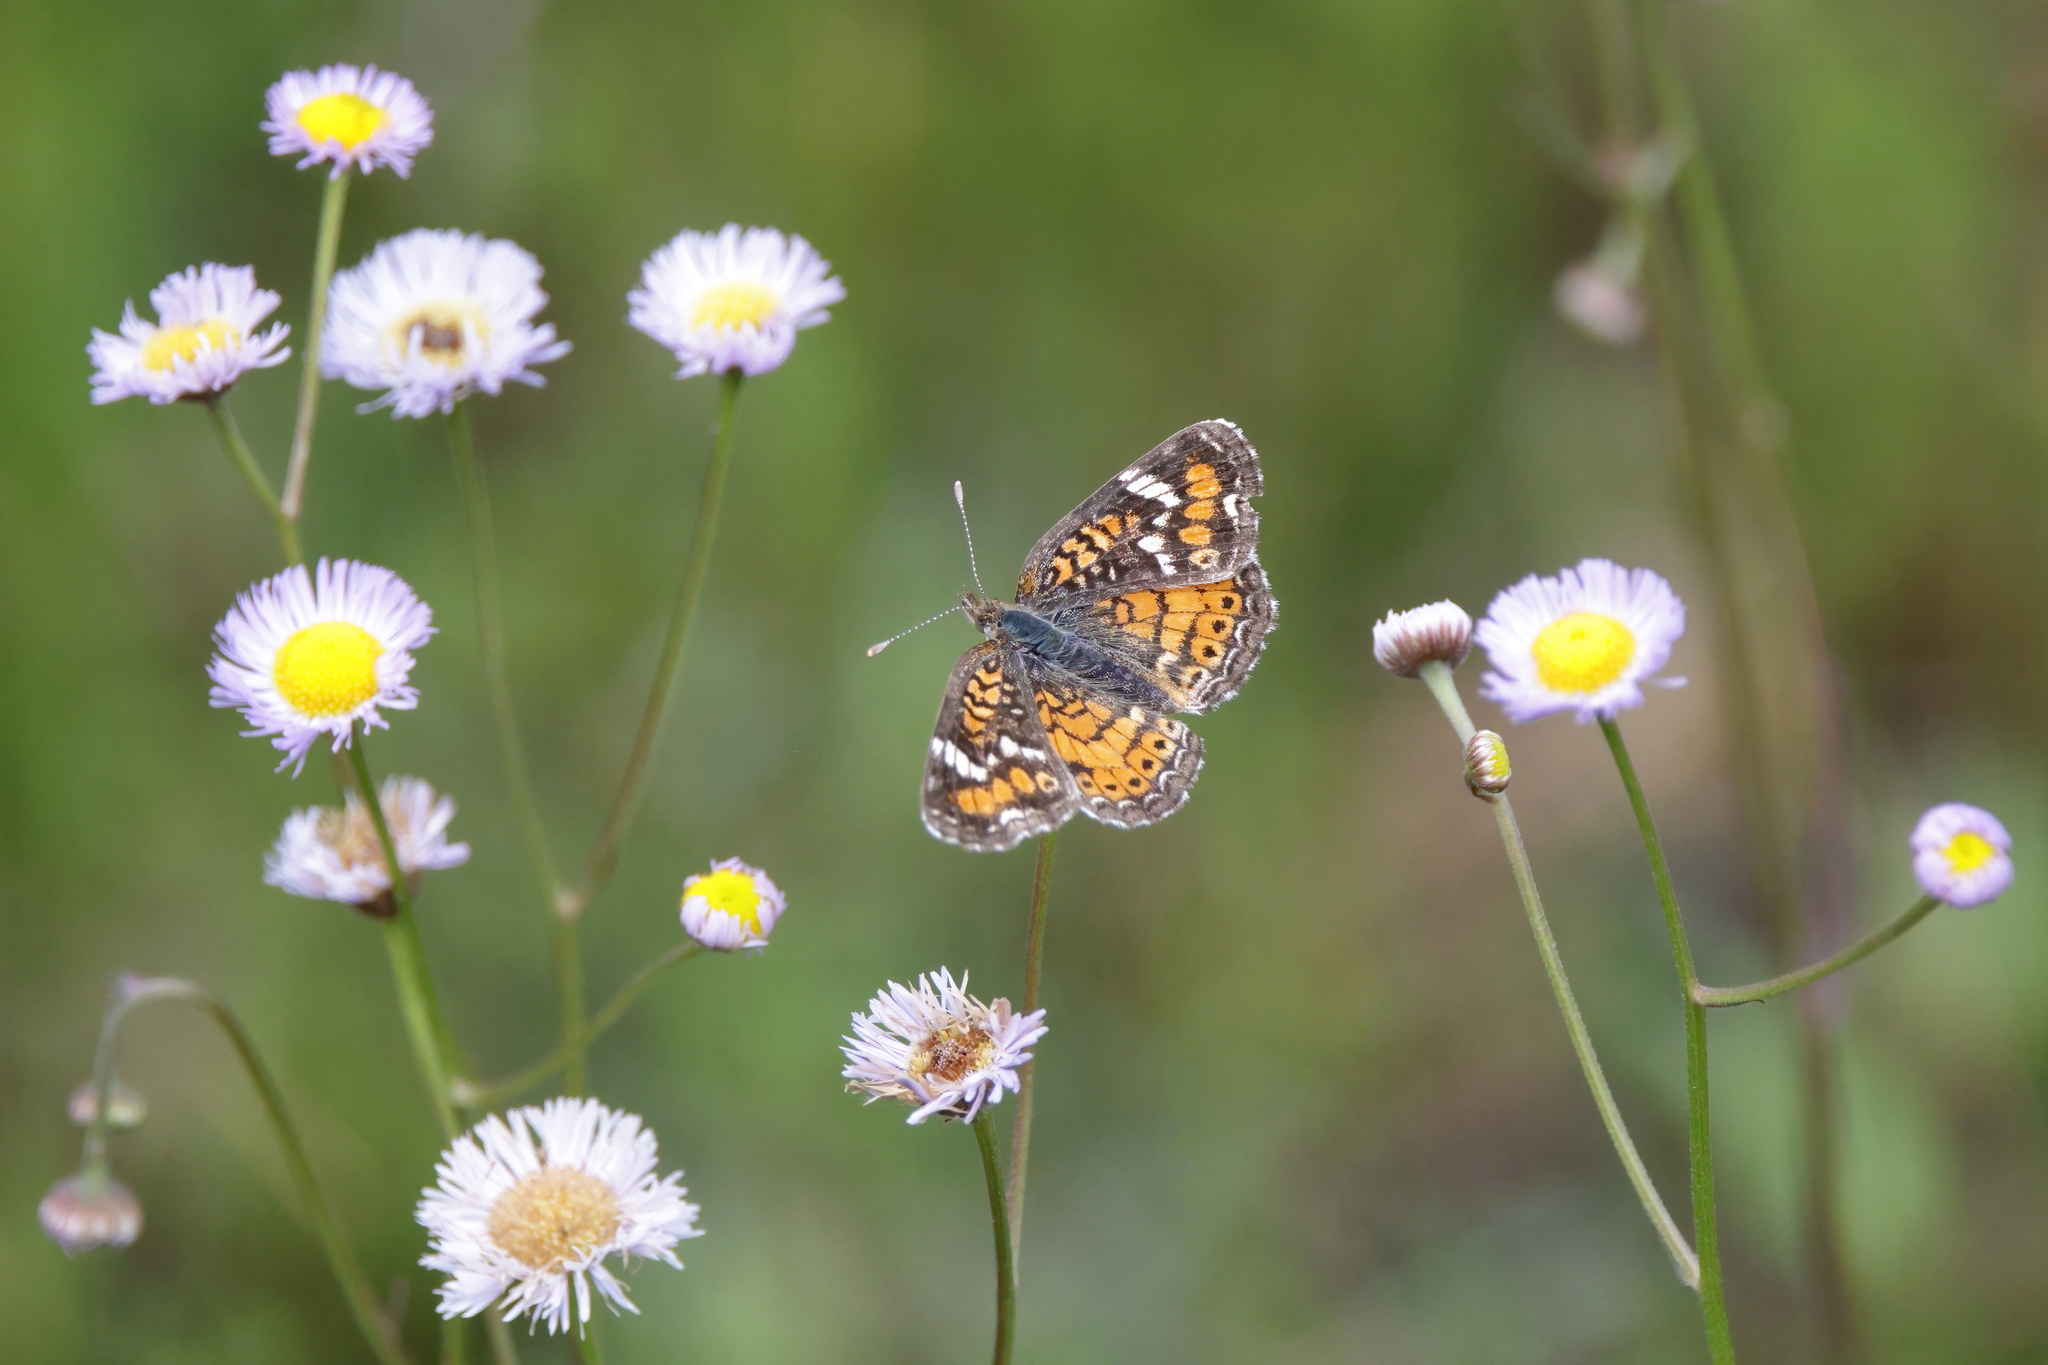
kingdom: Animalia
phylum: Arthropoda
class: Insecta
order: Lepidoptera
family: Nymphalidae
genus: Phyciodes
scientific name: Phyciodes phaon
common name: Phaon crescent
